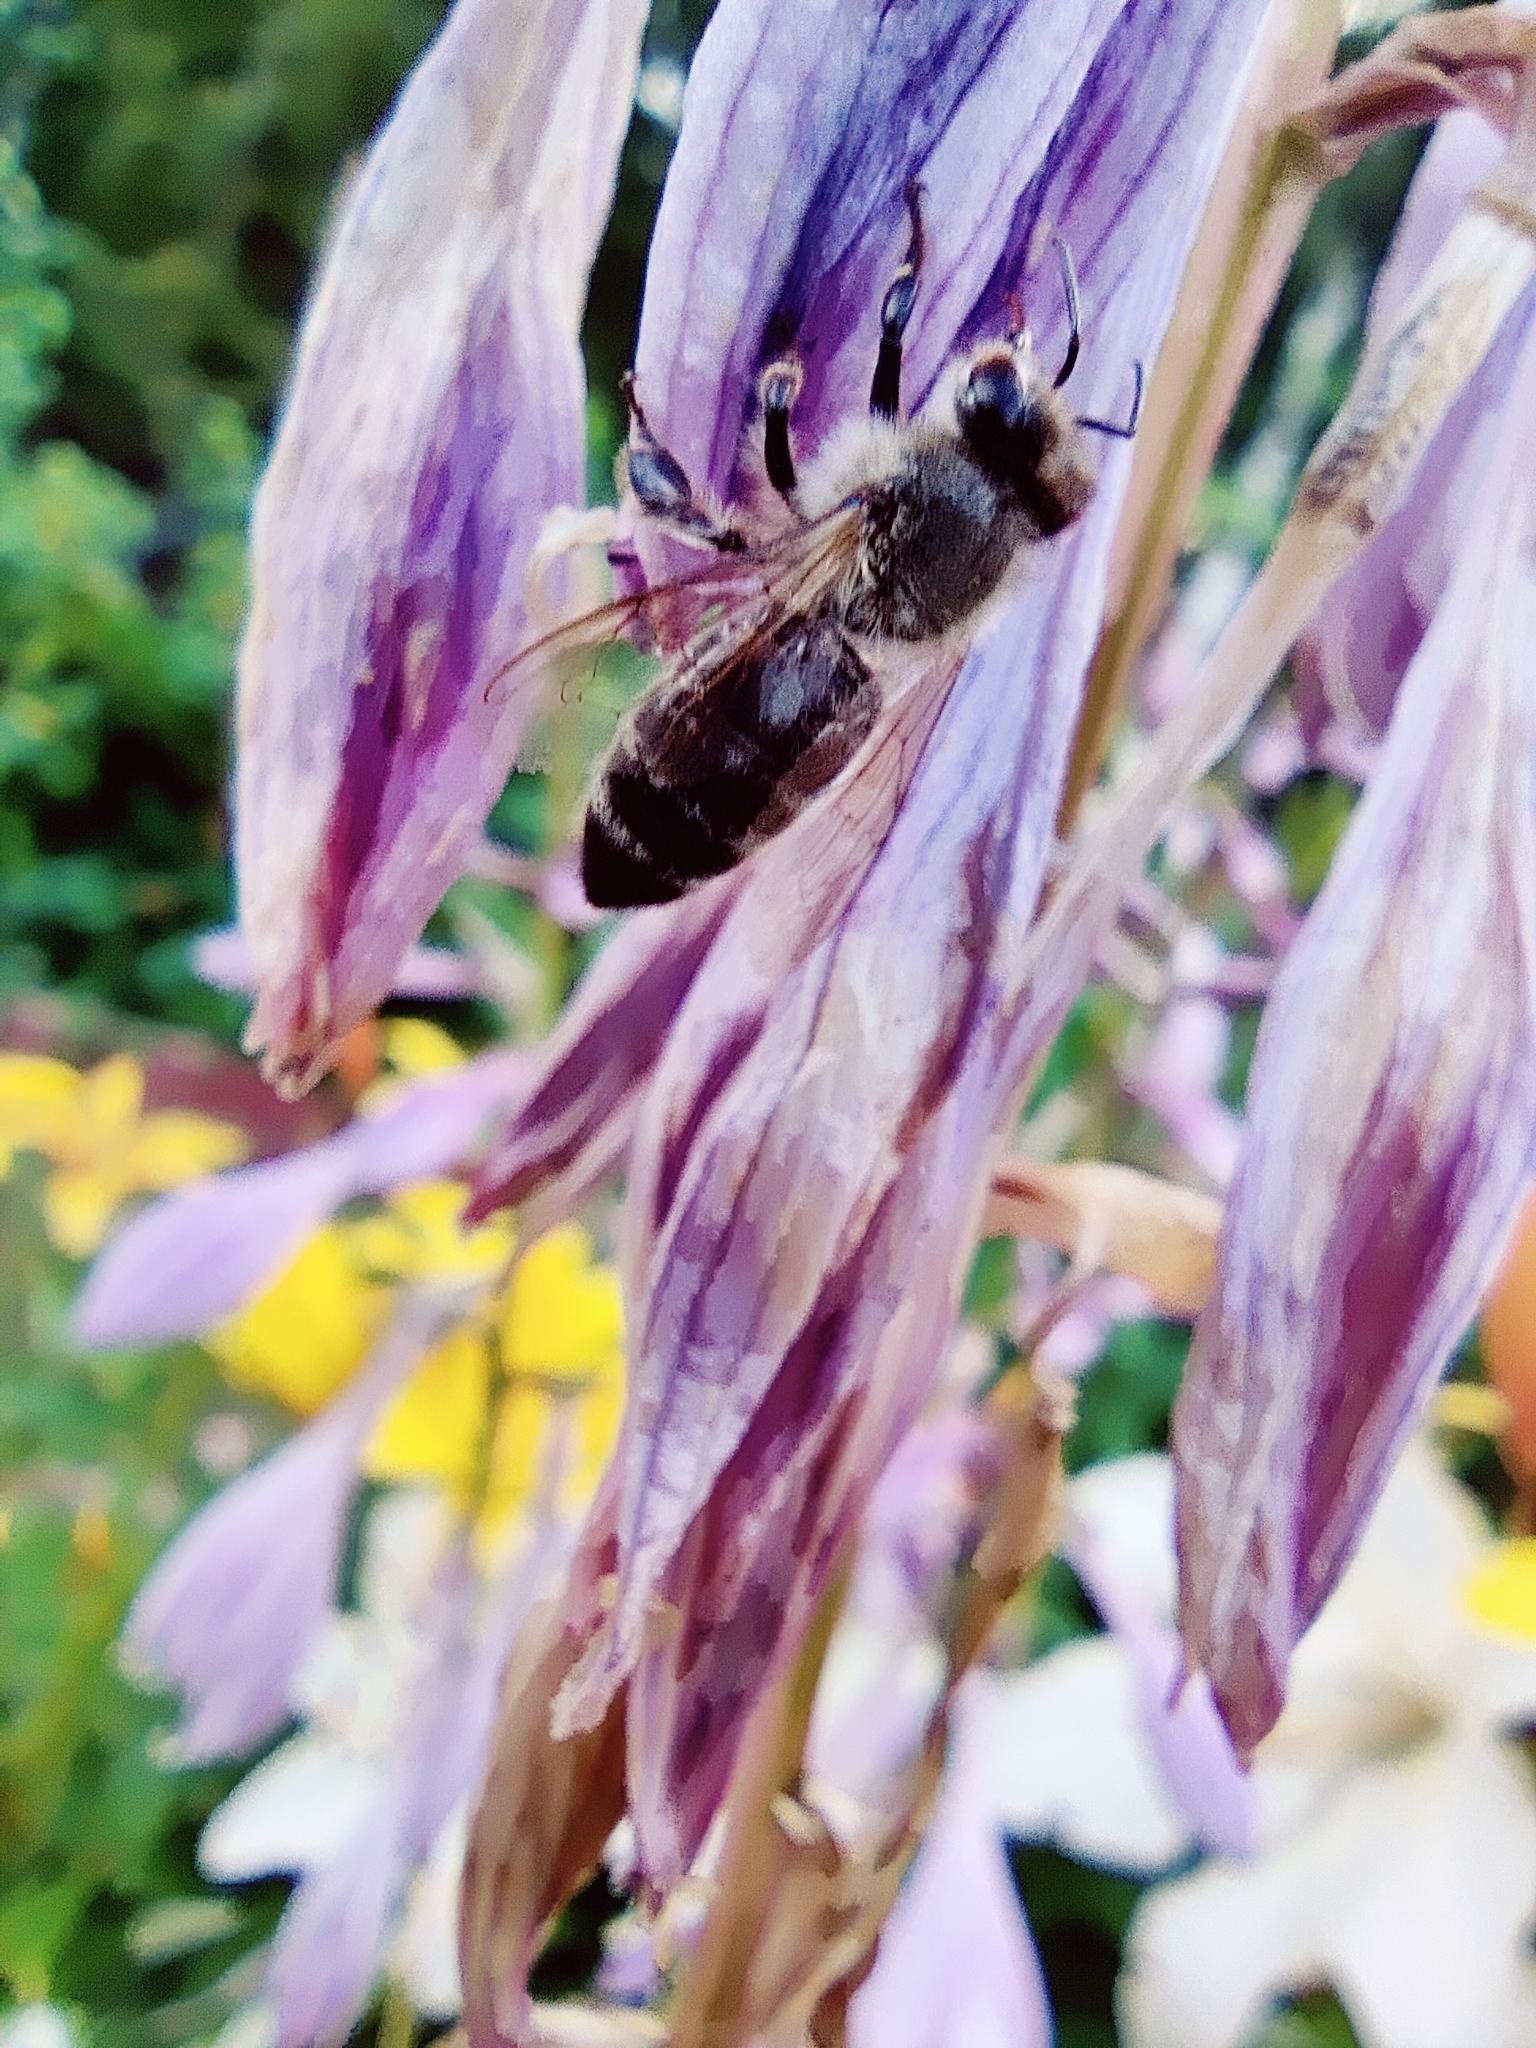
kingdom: Animalia
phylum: Arthropoda
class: Insecta
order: Hymenoptera
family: Apidae
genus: Apis
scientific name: Apis mellifera
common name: Honey bee
